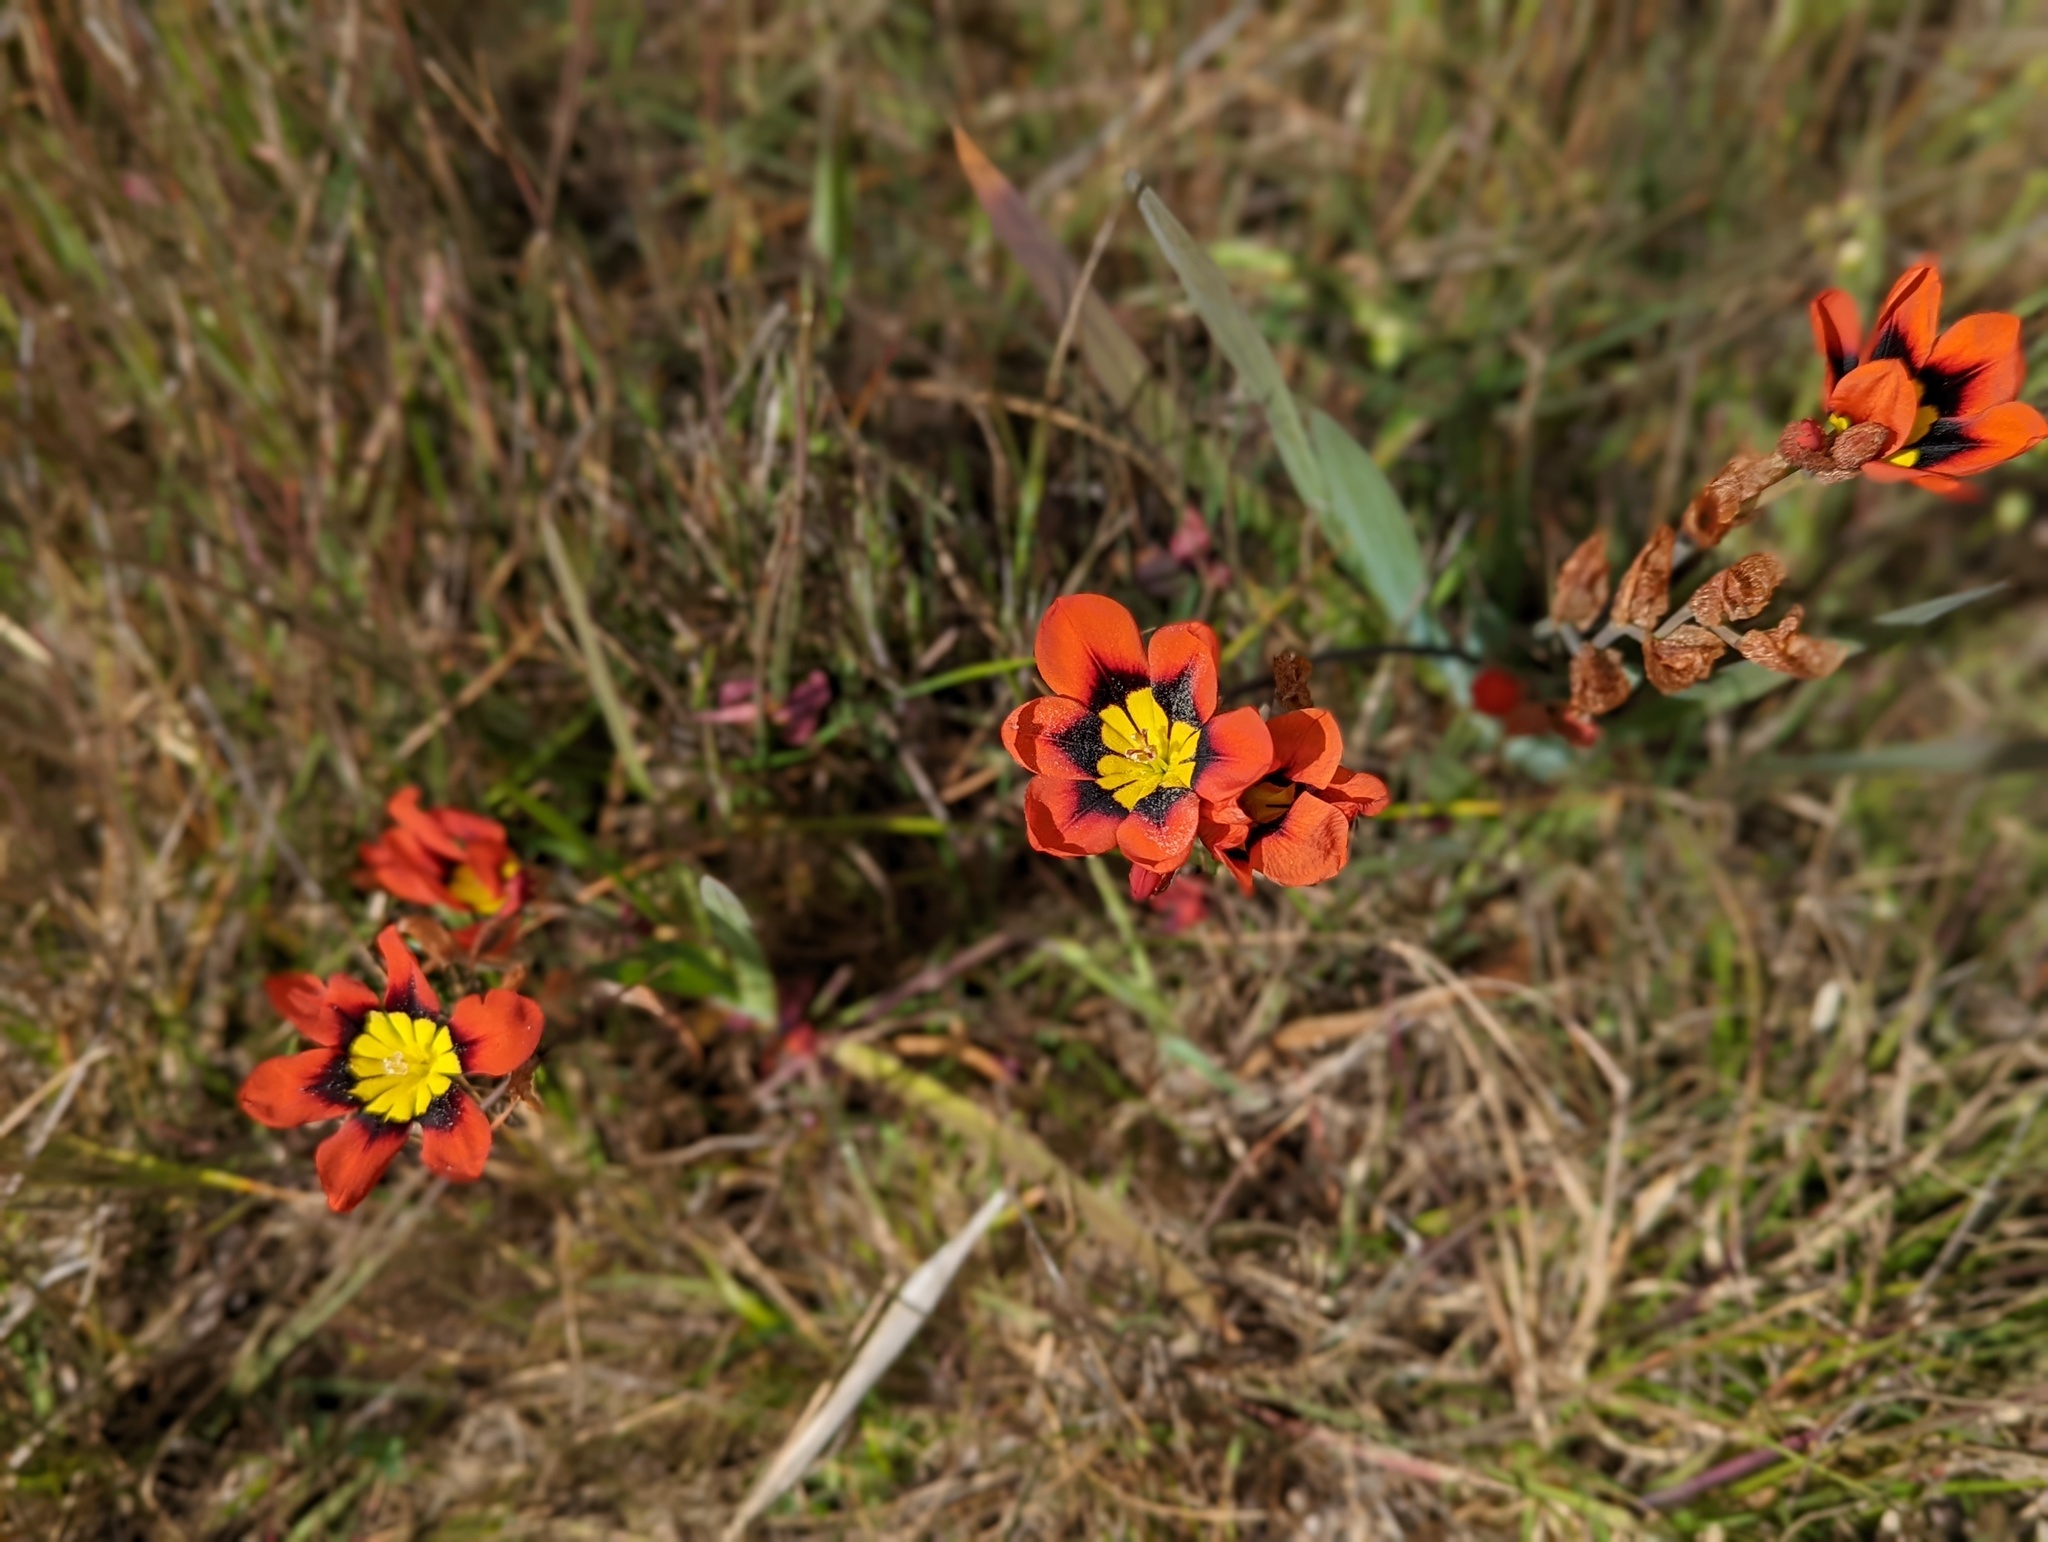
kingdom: Plantae
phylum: Tracheophyta
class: Liliopsida
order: Asparagales
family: Iridaceae
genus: Sparaxis
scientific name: Sparaxis tricolor
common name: Wandflower
